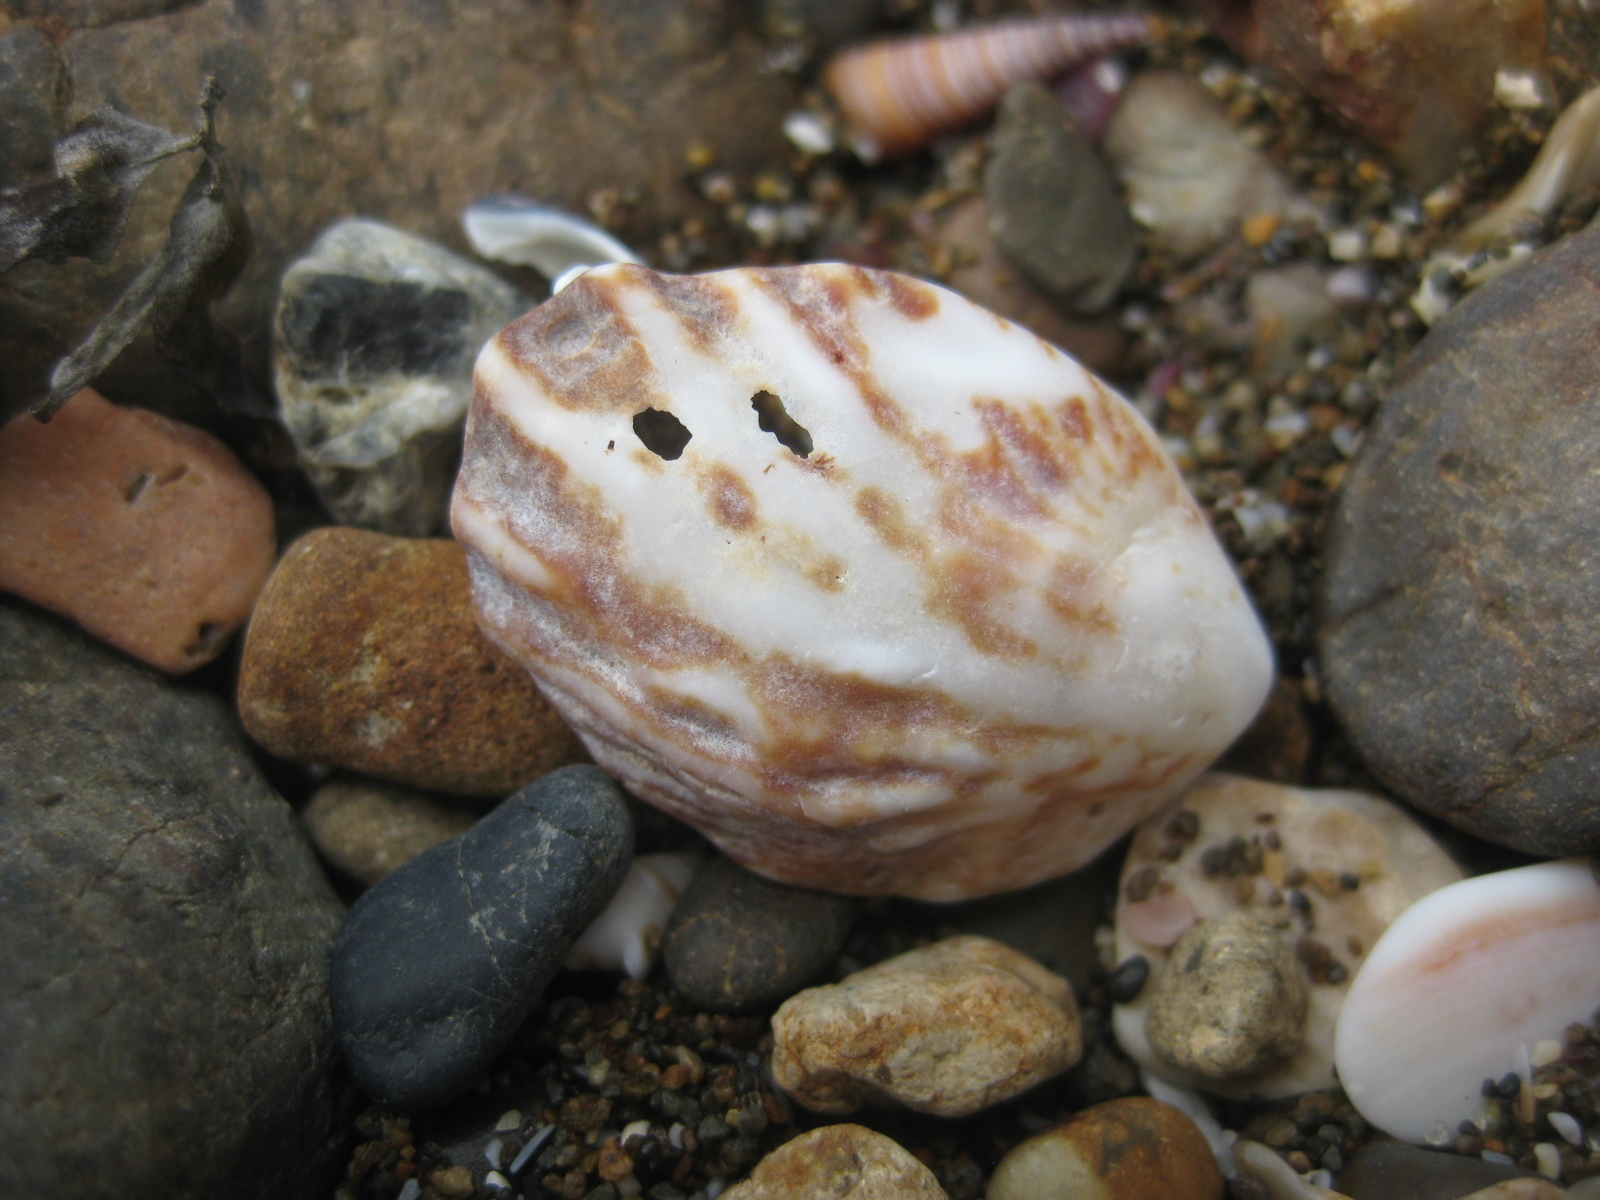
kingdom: Animalia
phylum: Mollusca
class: Gastropoda
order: Littorinimorpha
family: Calyptraeidae
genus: Maoricrypta
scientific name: Maoricrypta costata
